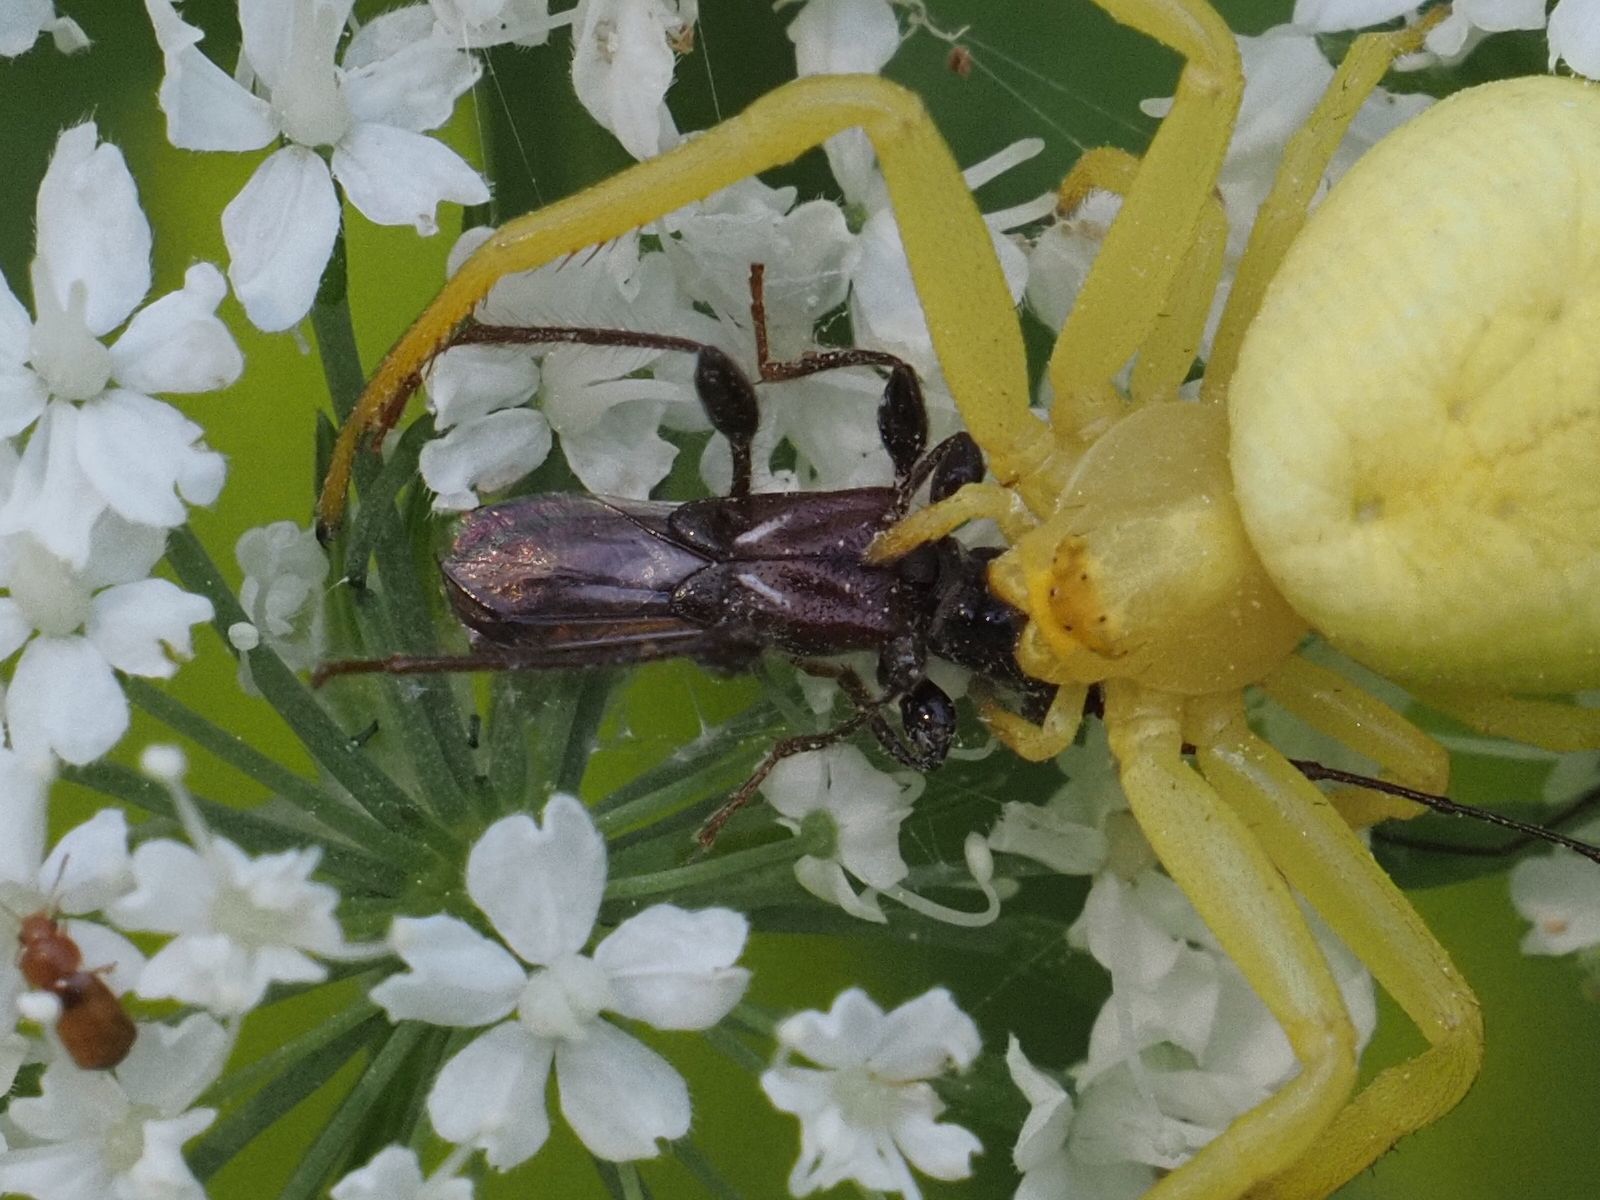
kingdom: Animalia
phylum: Arthropoda
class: Insecta
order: Coleoptera
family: Cerambycidae
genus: Molorchus
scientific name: Molorchus minor
